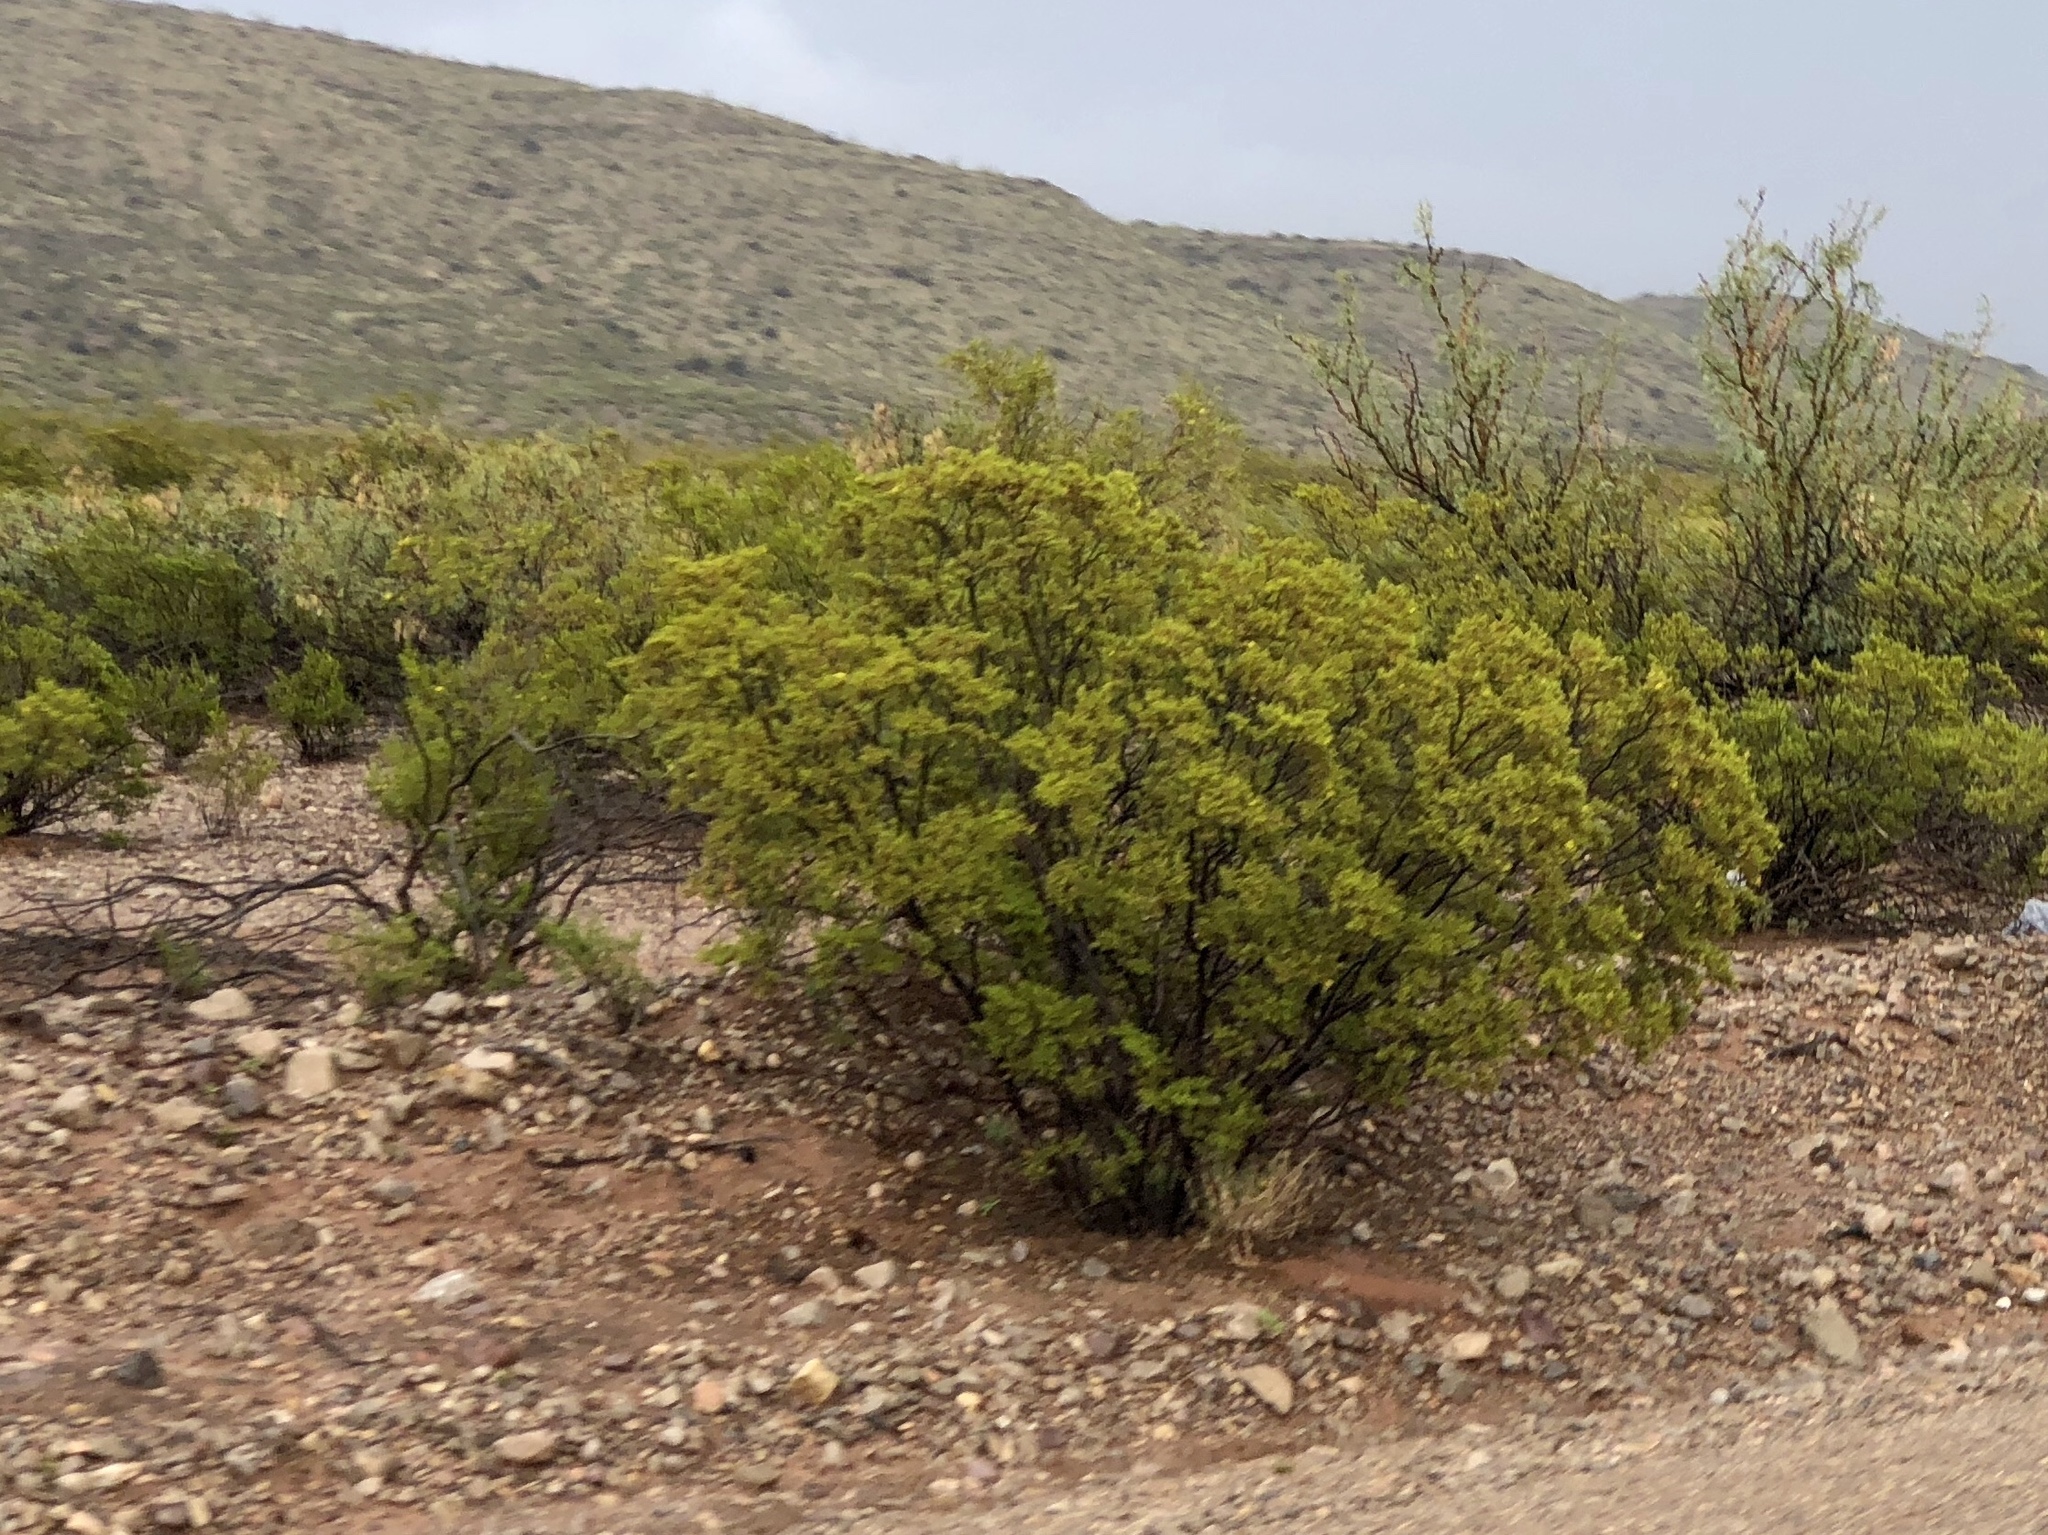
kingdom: Plantae
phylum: Tracheophyta
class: Magnoliopsida
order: Zygophyllales
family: Zygophyllaceae
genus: Larrea
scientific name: Larrea tridentata
